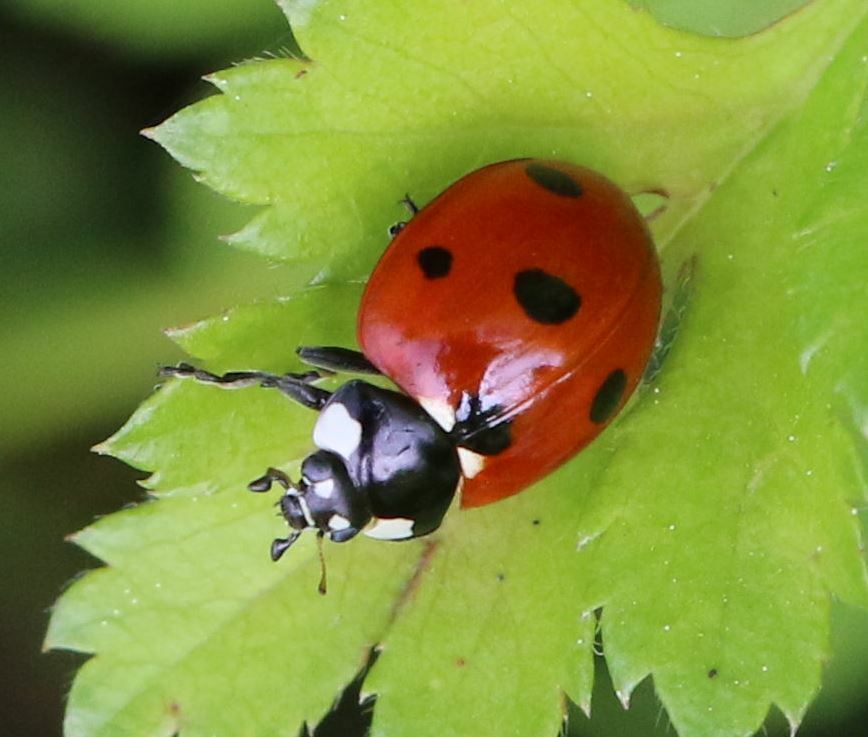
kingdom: Animalia
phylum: Arthropoda
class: Insecta
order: Coleoptera
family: Coccinellidae
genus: Coccinella
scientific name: Coccinella septempunctata
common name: Sevenspotted lady beetle
